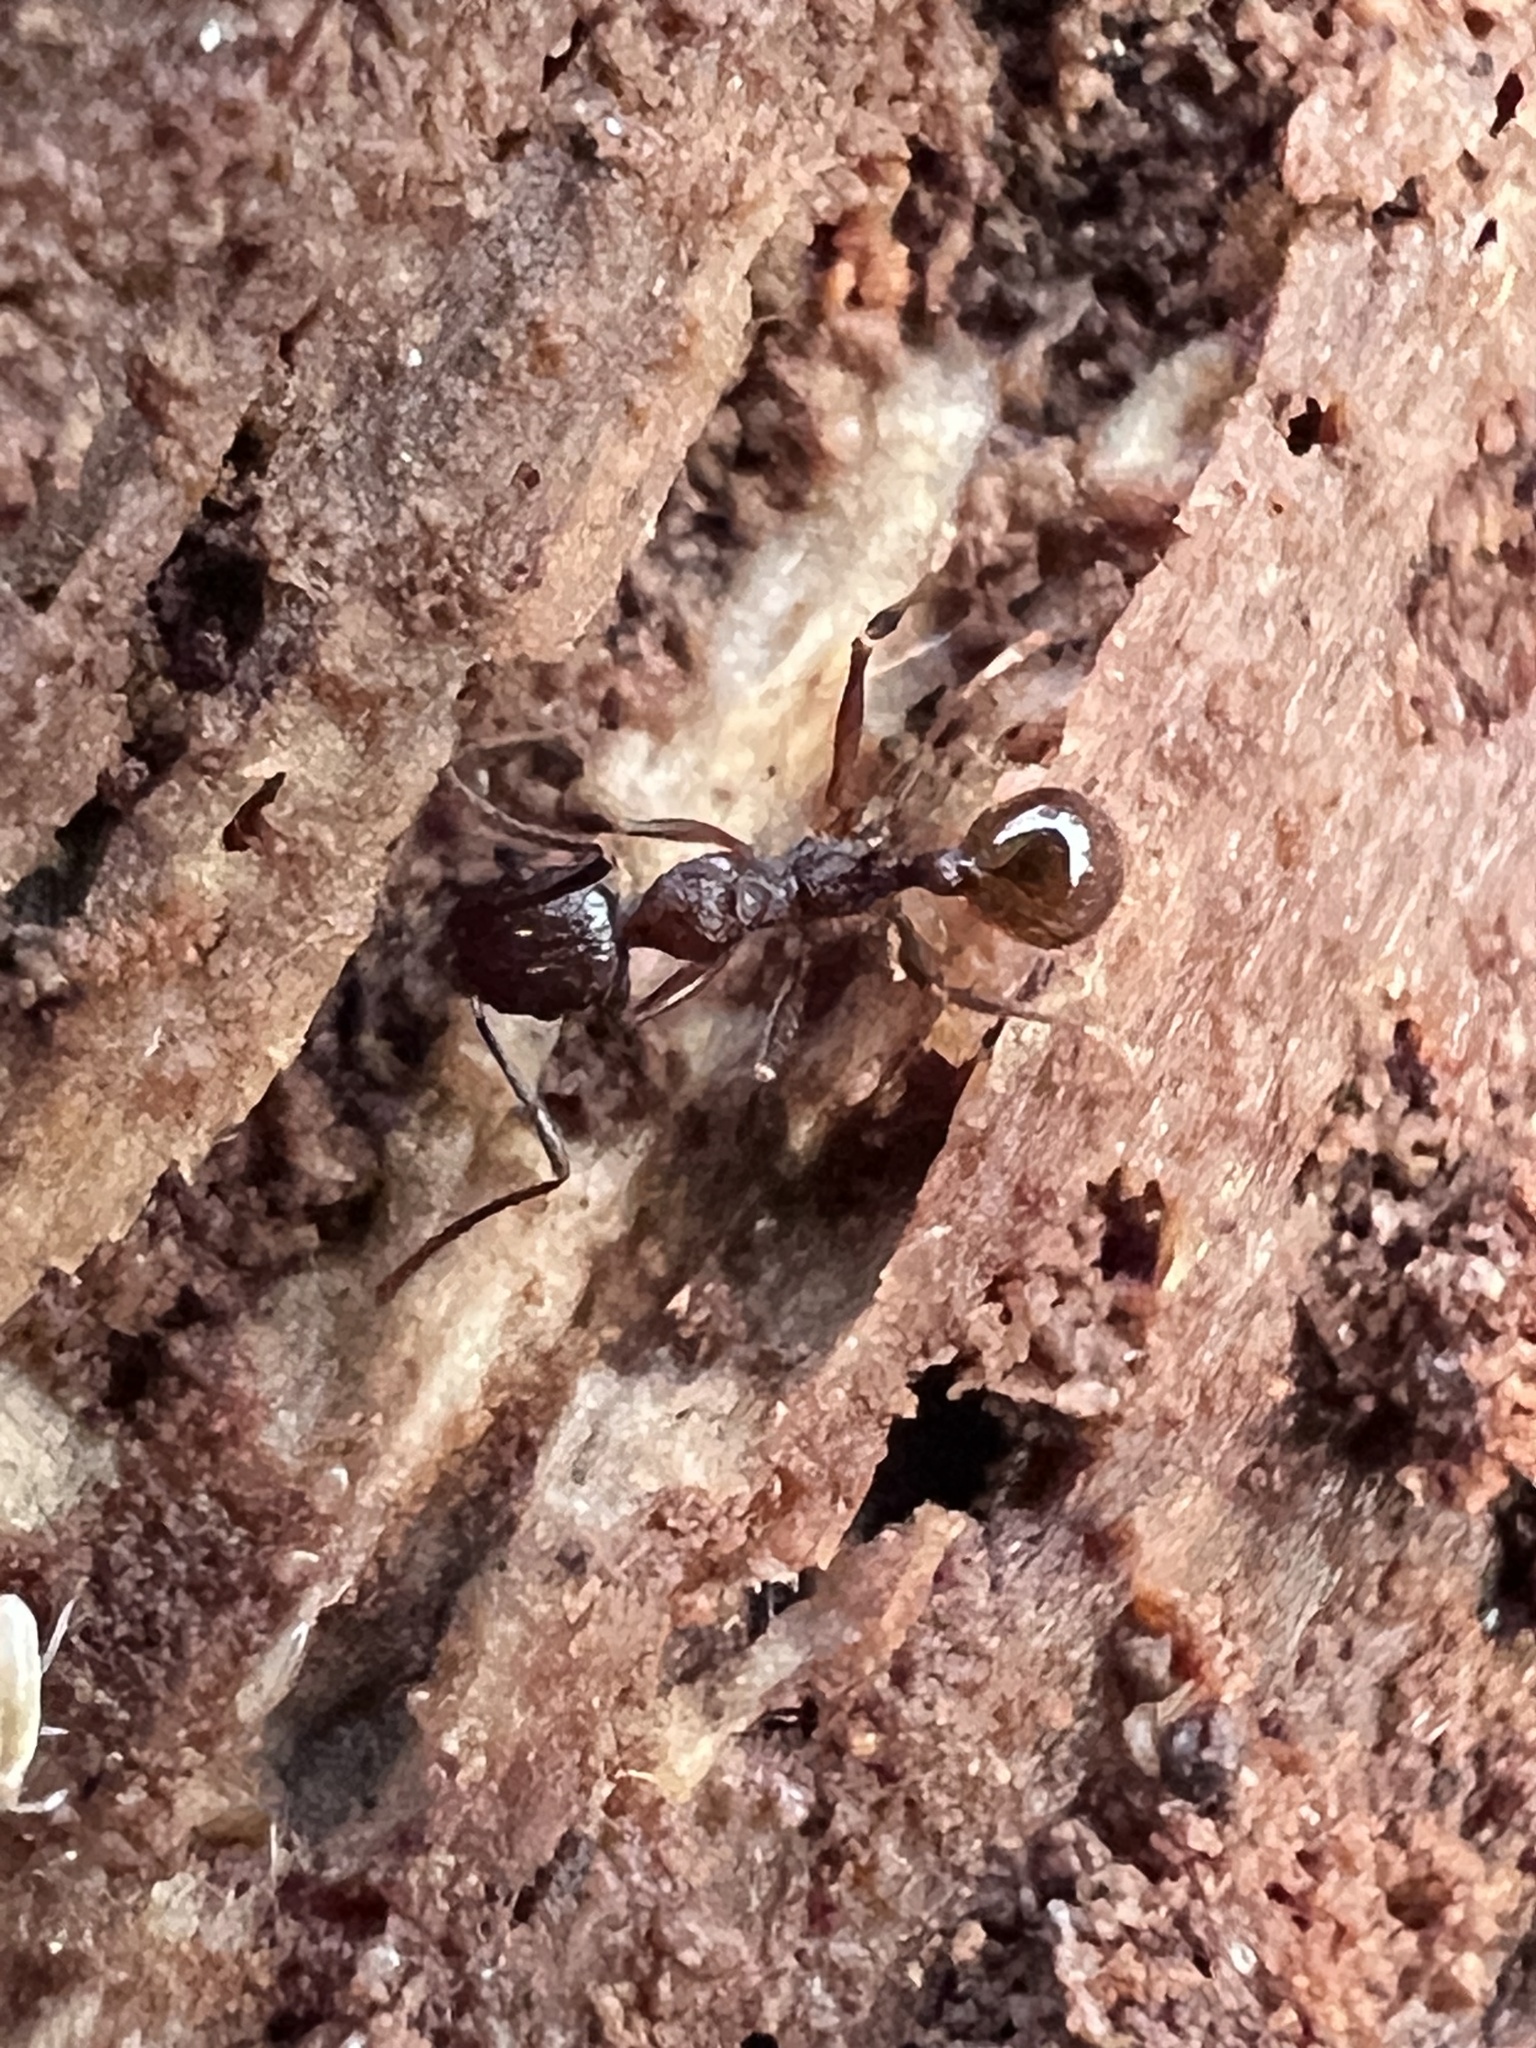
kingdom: Animalia
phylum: Arthropoda
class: Insecta
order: Hymenoptera
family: Formicidae
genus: Aphaenogaster
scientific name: Aphaenogaster fulva
